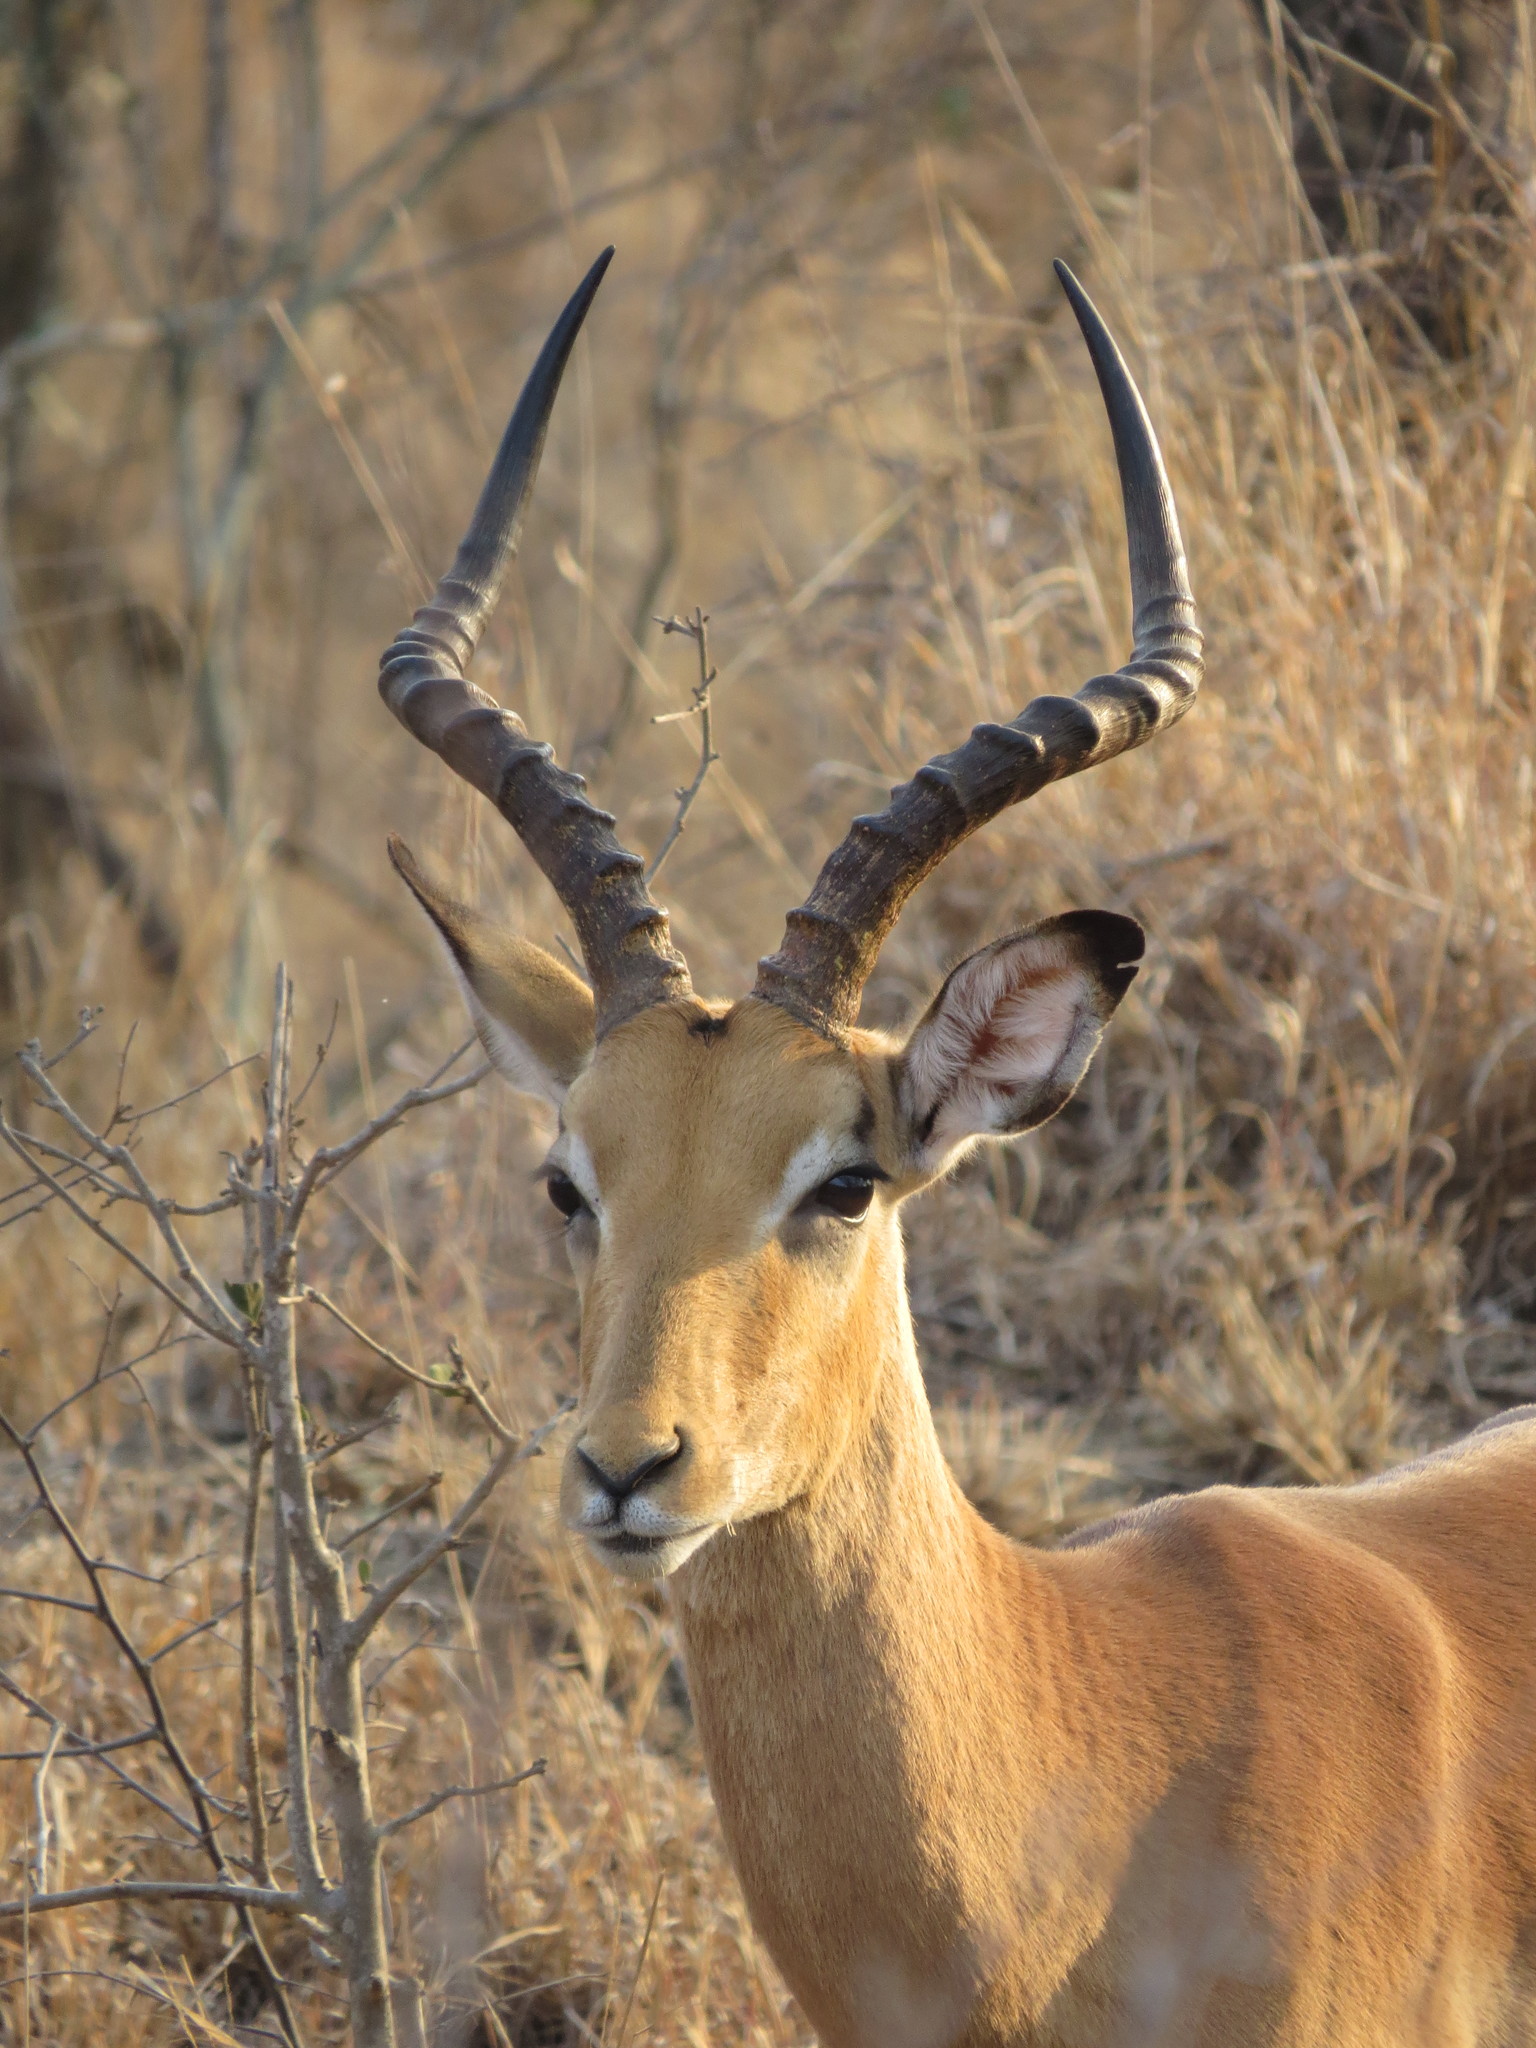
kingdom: Animalia
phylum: Chordata
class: Mammalia
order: Artiodactyla
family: Bovidae
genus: Aepyceros
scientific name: Aepyceros melampus
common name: Impala
